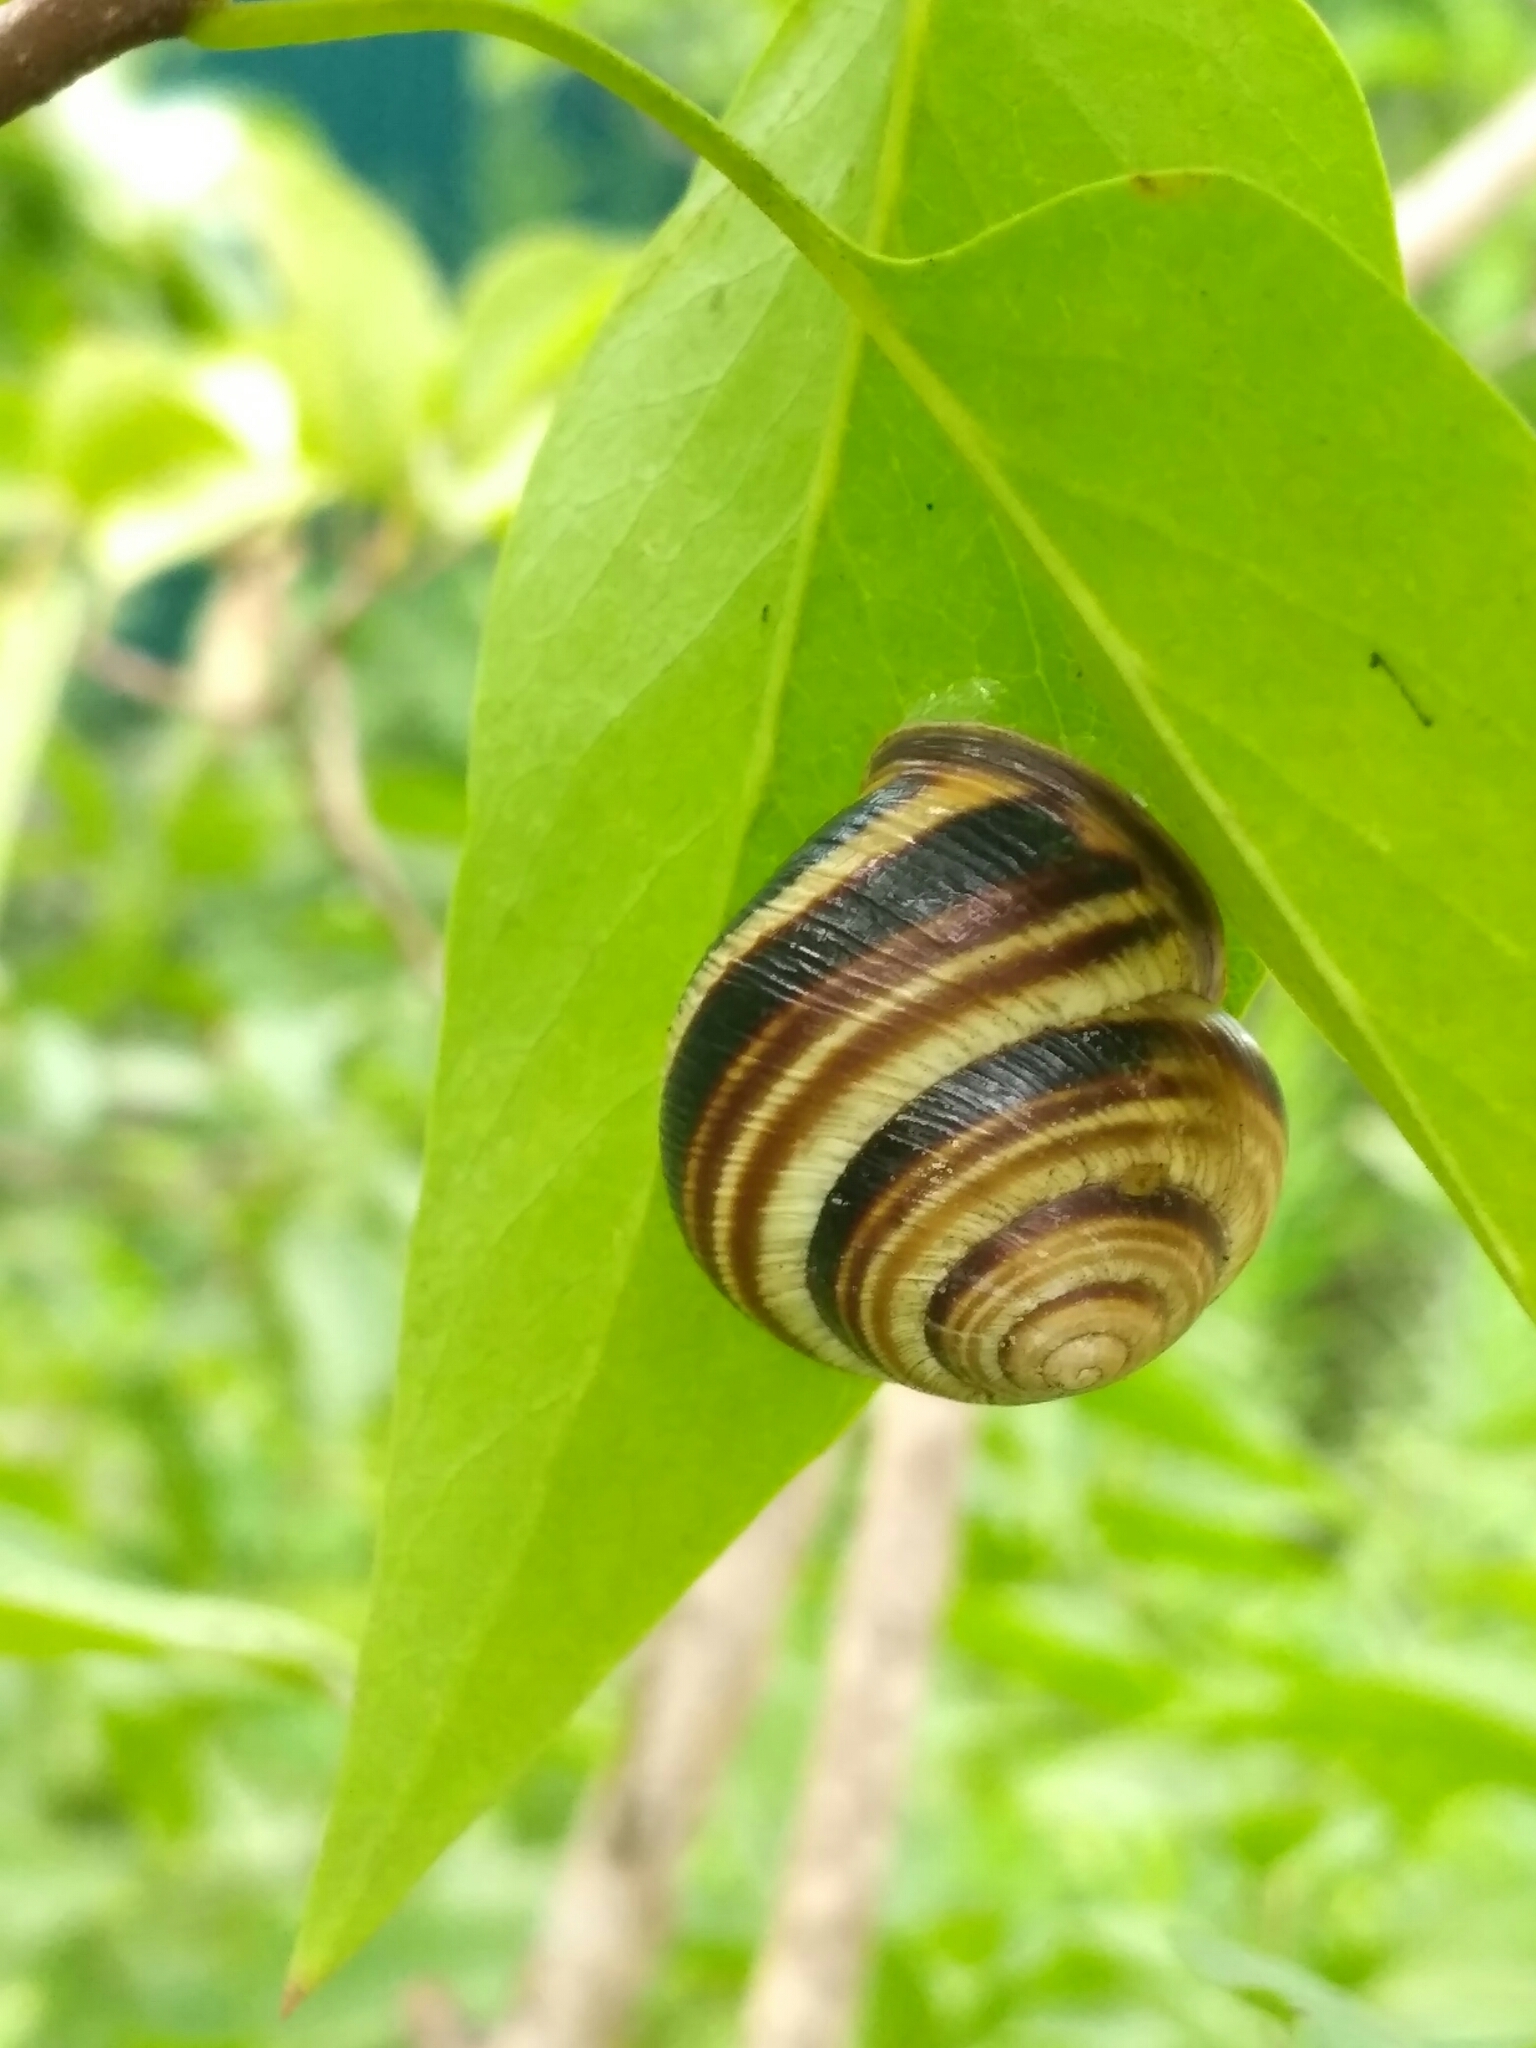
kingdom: Animalia
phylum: Mollusca
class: Gastropoda
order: Stylommatophora
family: Helicidae
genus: Caucasotachea
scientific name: Caucasotachea vindobonensis
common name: European helicid land snail
